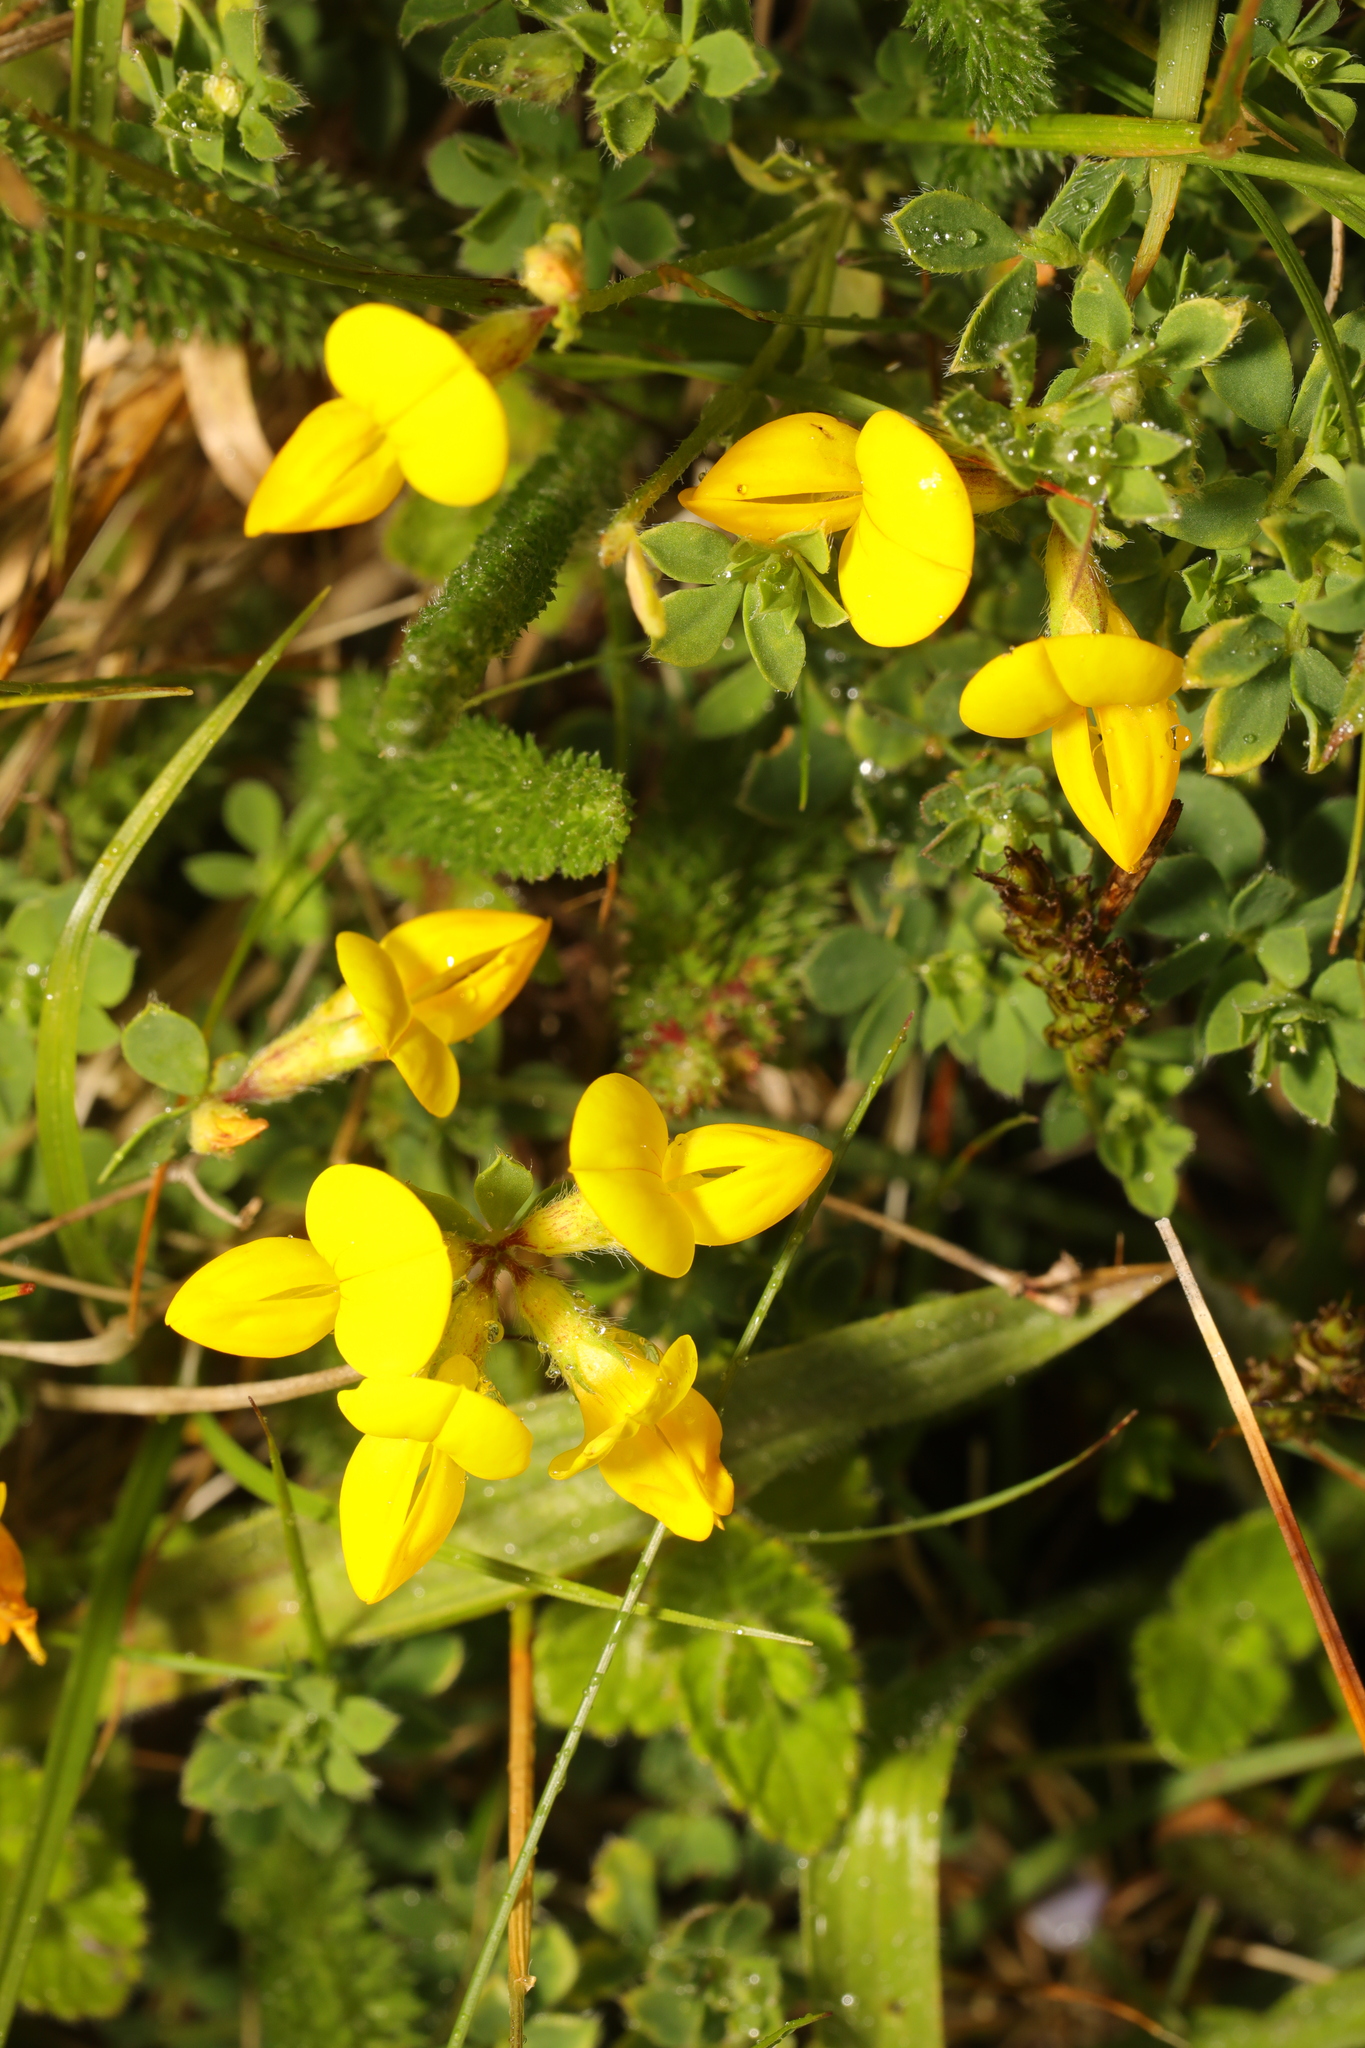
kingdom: Plantae
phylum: Tracheophyta
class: Magnoliopsida
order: Fabales
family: Fabaceae
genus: Lotus
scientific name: Lotus corniculatus
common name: Common bird's-foot-trefoil
